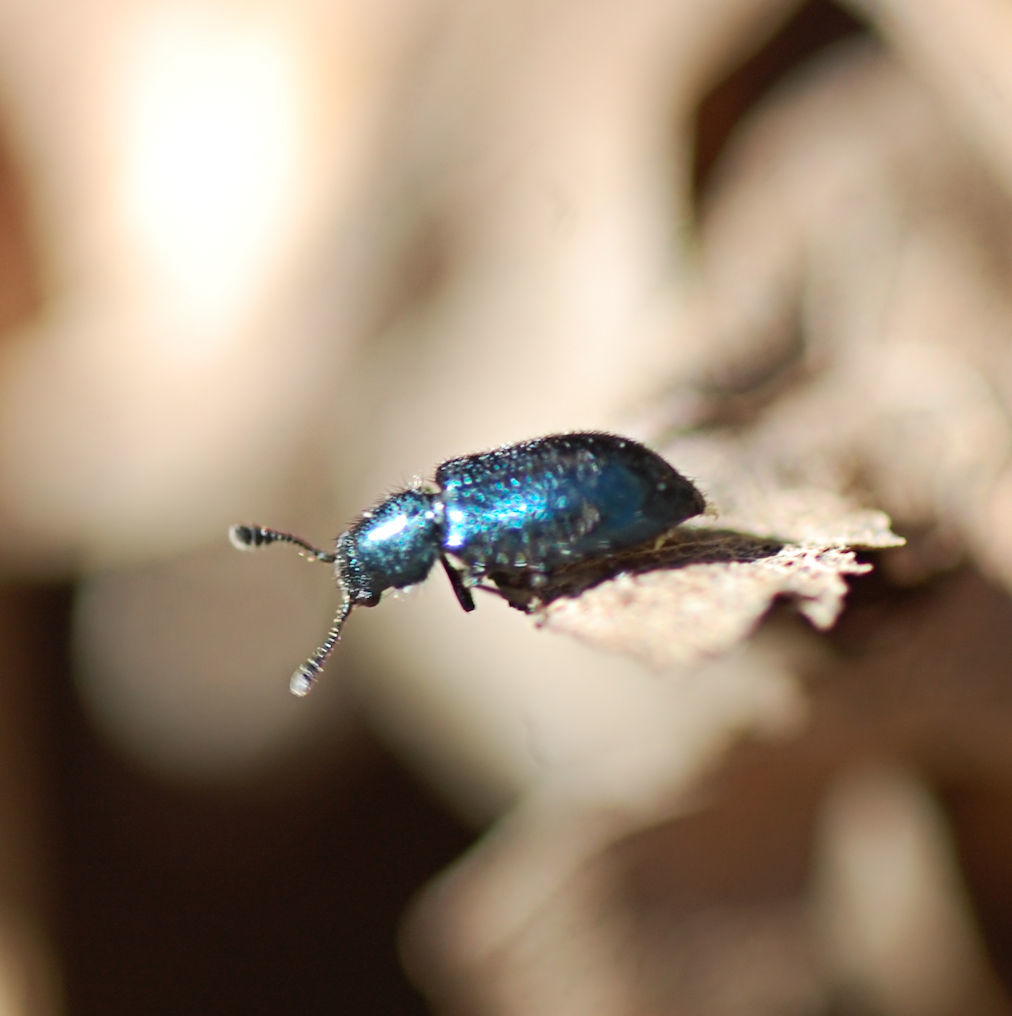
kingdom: Animalia
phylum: Arthropoda
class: Insecta
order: Coleoptera
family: Cleridae
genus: Necrobia
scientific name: Necrobia violacea
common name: Violet checkered beetle
